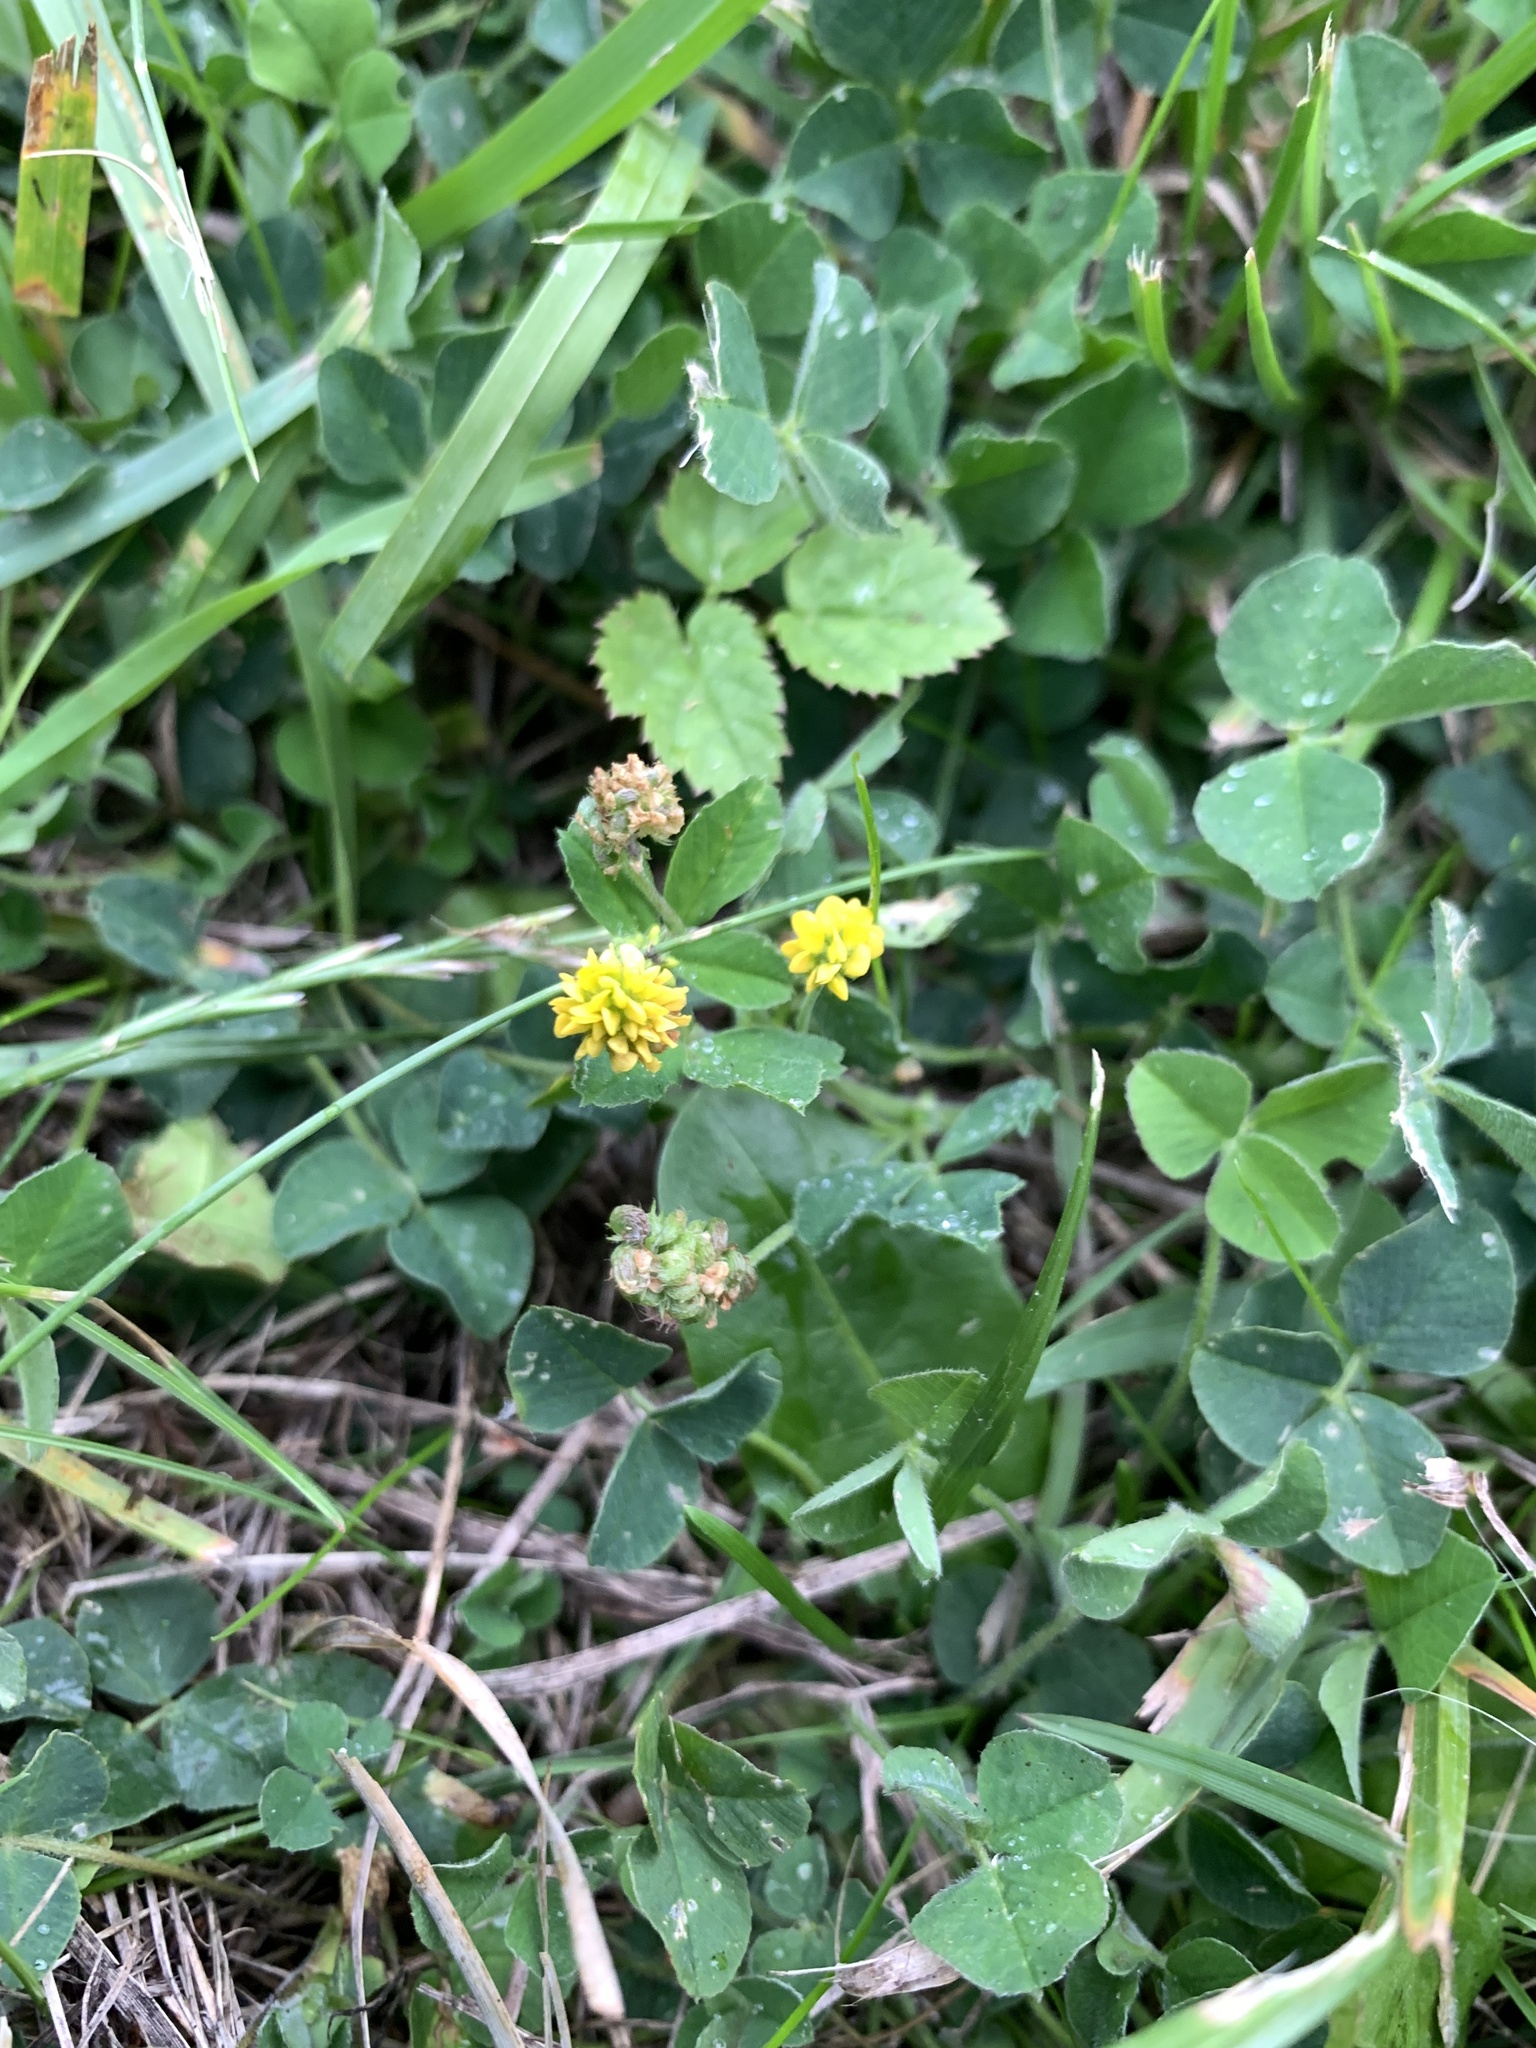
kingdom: Plantae
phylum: Tracheophyta
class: Magnoliopsida
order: Fabales
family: Fabaceae
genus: Medicago
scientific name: Medicago lupulina
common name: Black medick
